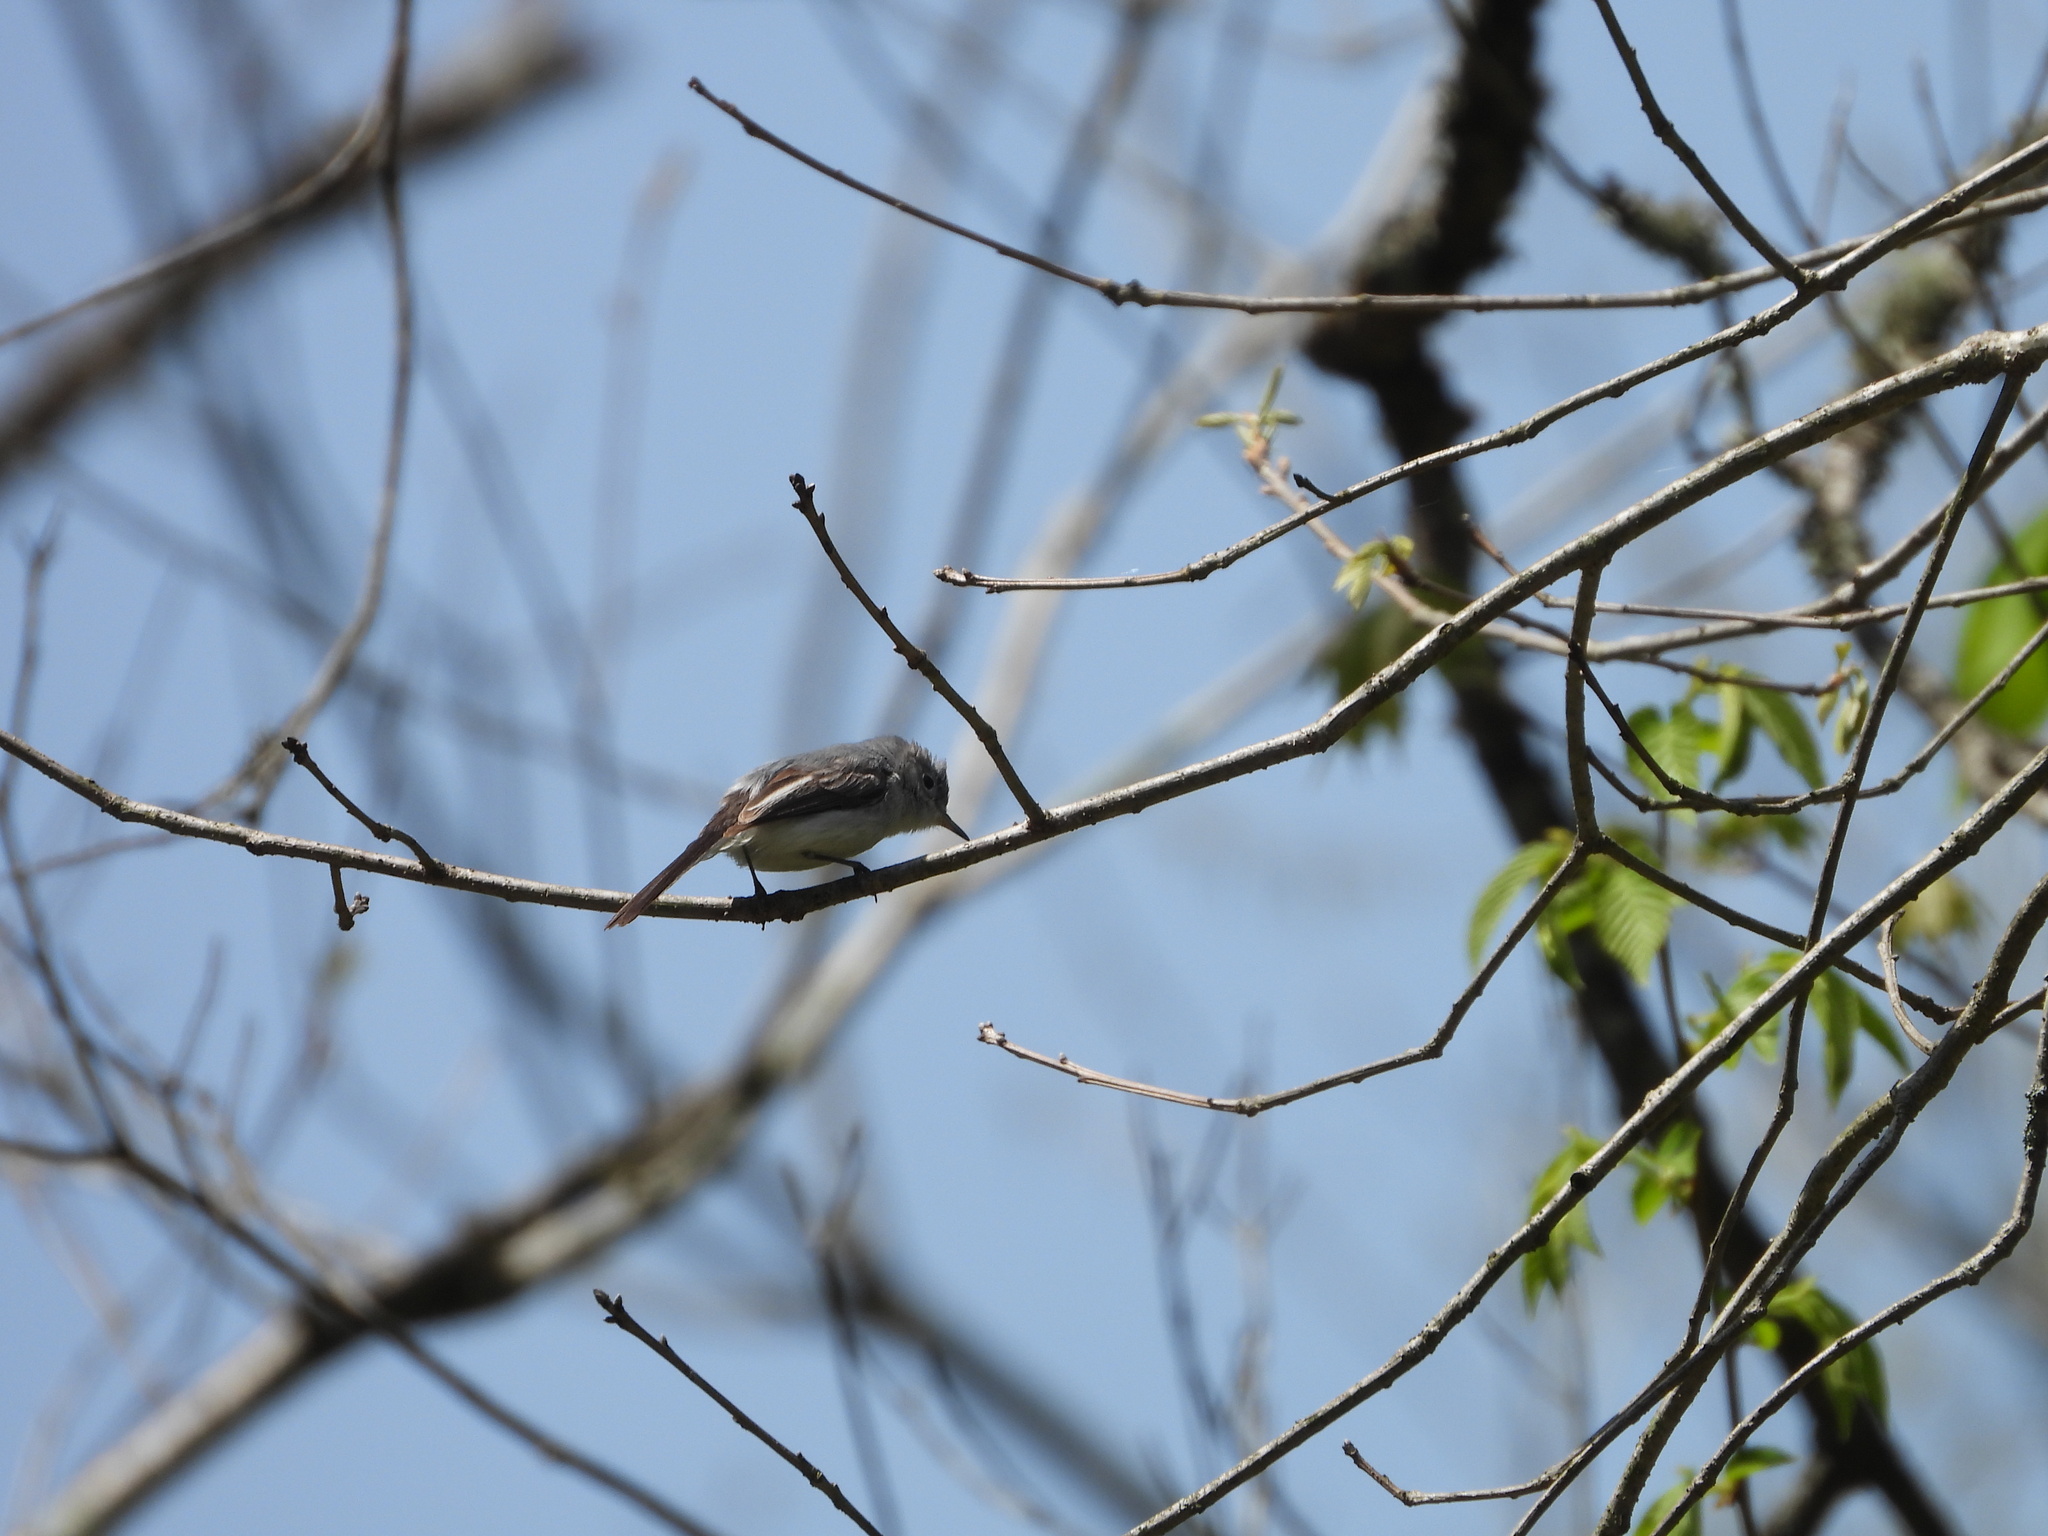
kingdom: Animalia
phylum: Chordata
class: Aves
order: Passeriformes
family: Polioptilidae
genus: Polioptila
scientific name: Polioptila caerulea
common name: Blue-gray gnatcatcher
